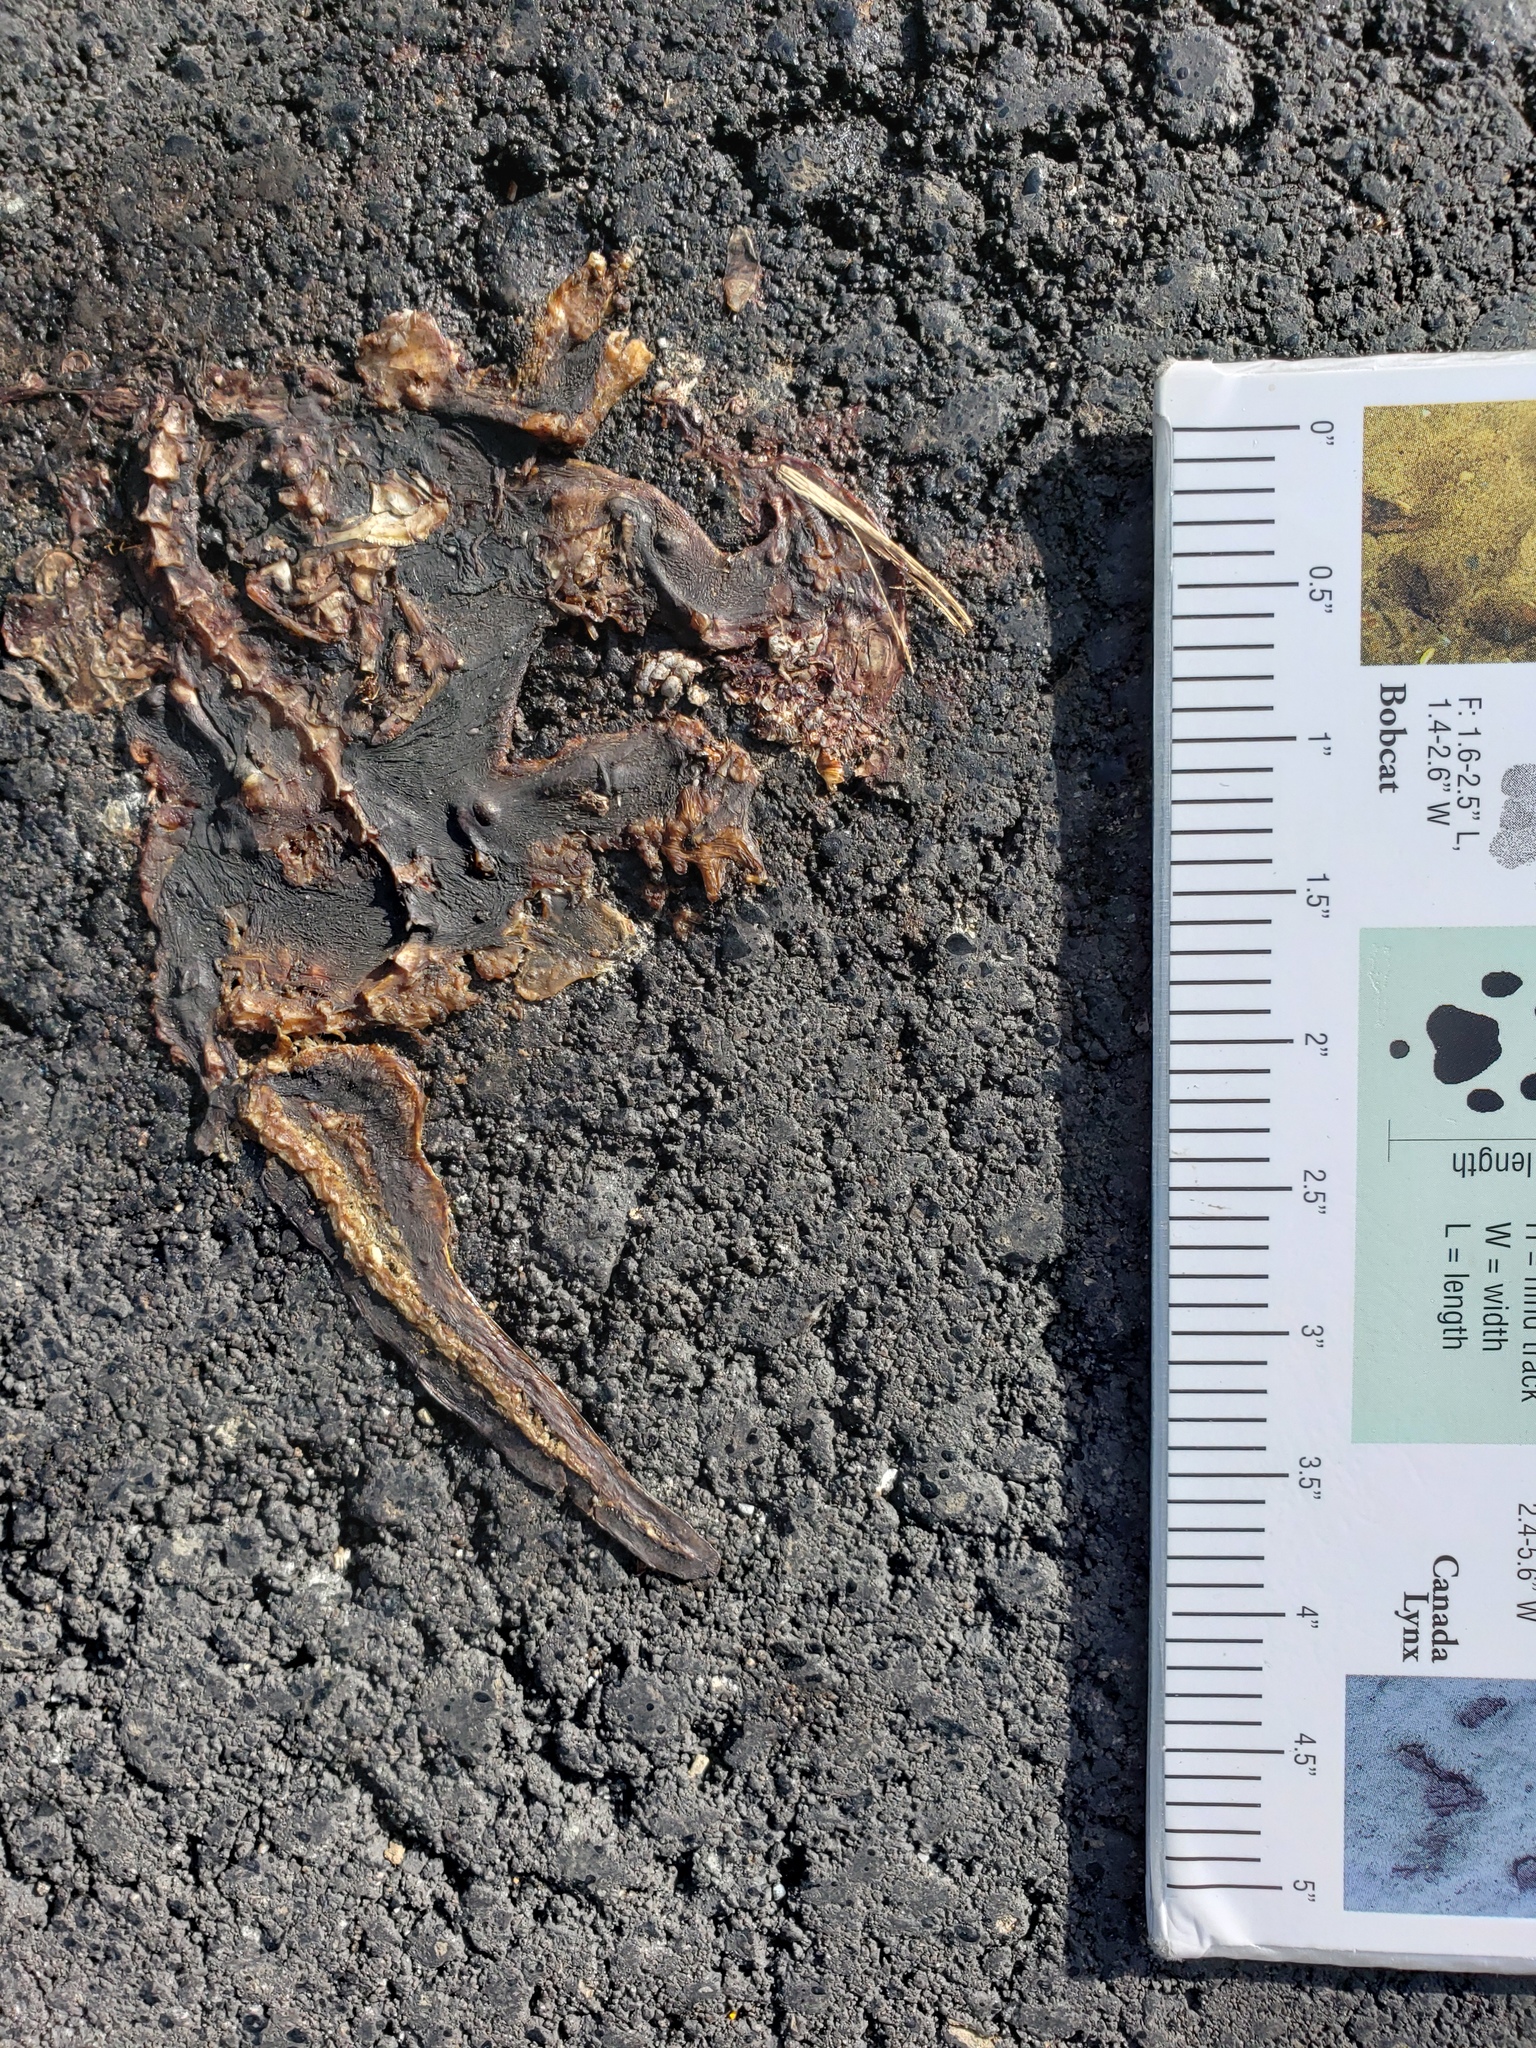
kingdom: Animalia
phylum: Chordata
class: Amphibia
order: Caudata
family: Salamandridae
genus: Taricha
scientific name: Taricha
